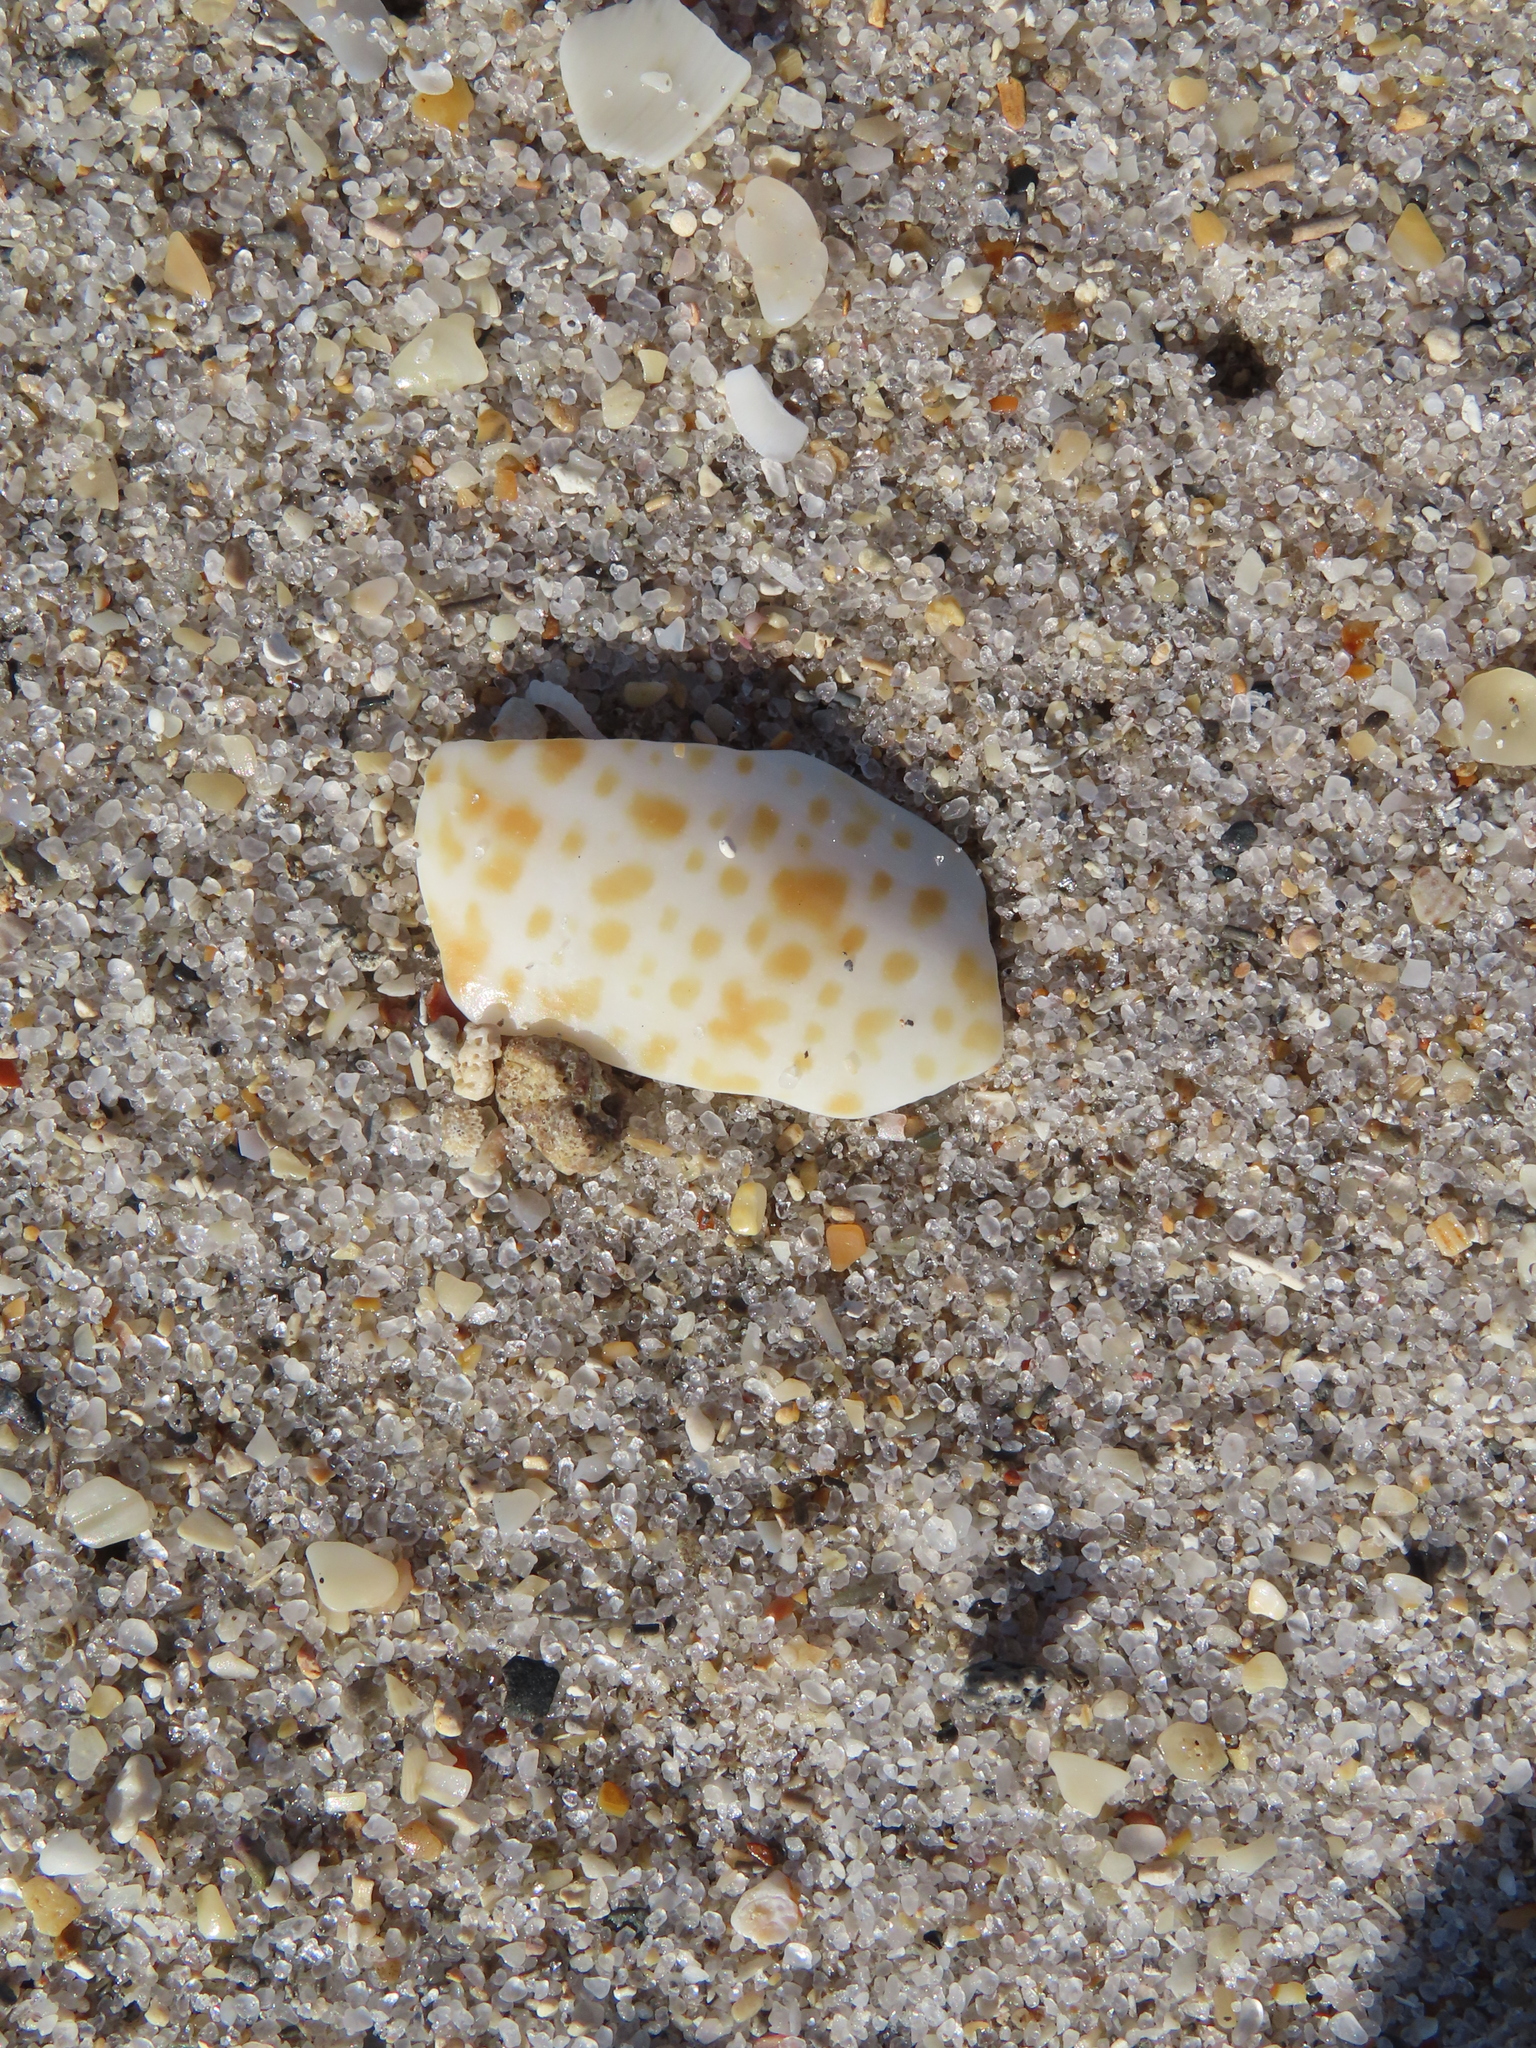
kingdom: Animalia
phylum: Mollusca
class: Gastropoda
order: Neogastropoda
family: Conidae
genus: Conus
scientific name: Conus spurius
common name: Alphabet cone
